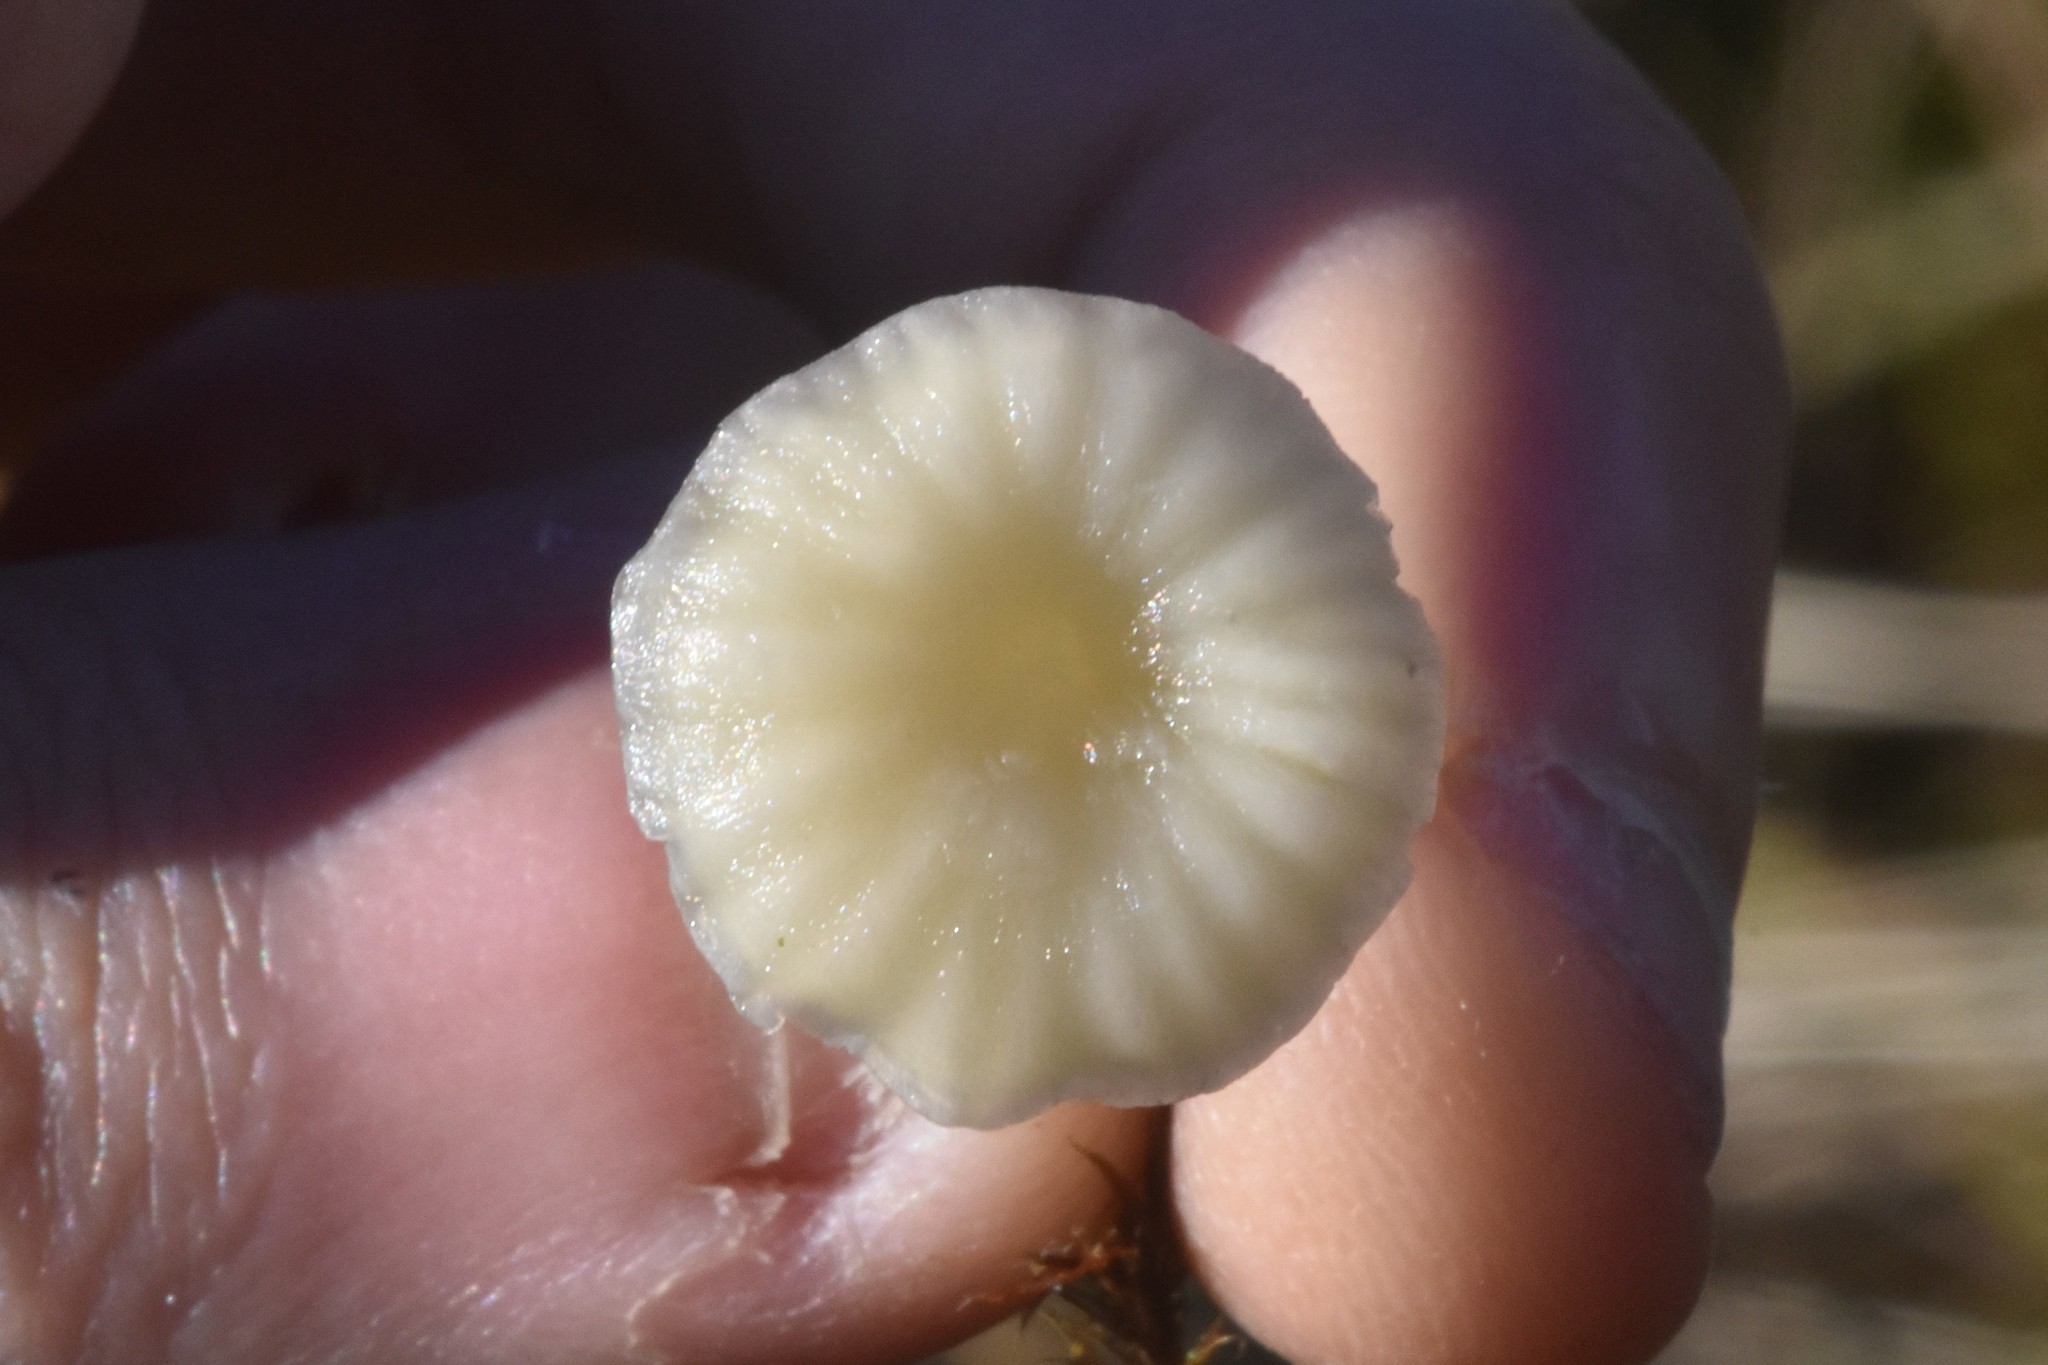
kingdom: Fungi
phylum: Basidiomycota
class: Agaricomycetes
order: Agaricales
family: Hygrophoraceae
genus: Lichenomphalia
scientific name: Lichenomphalia
